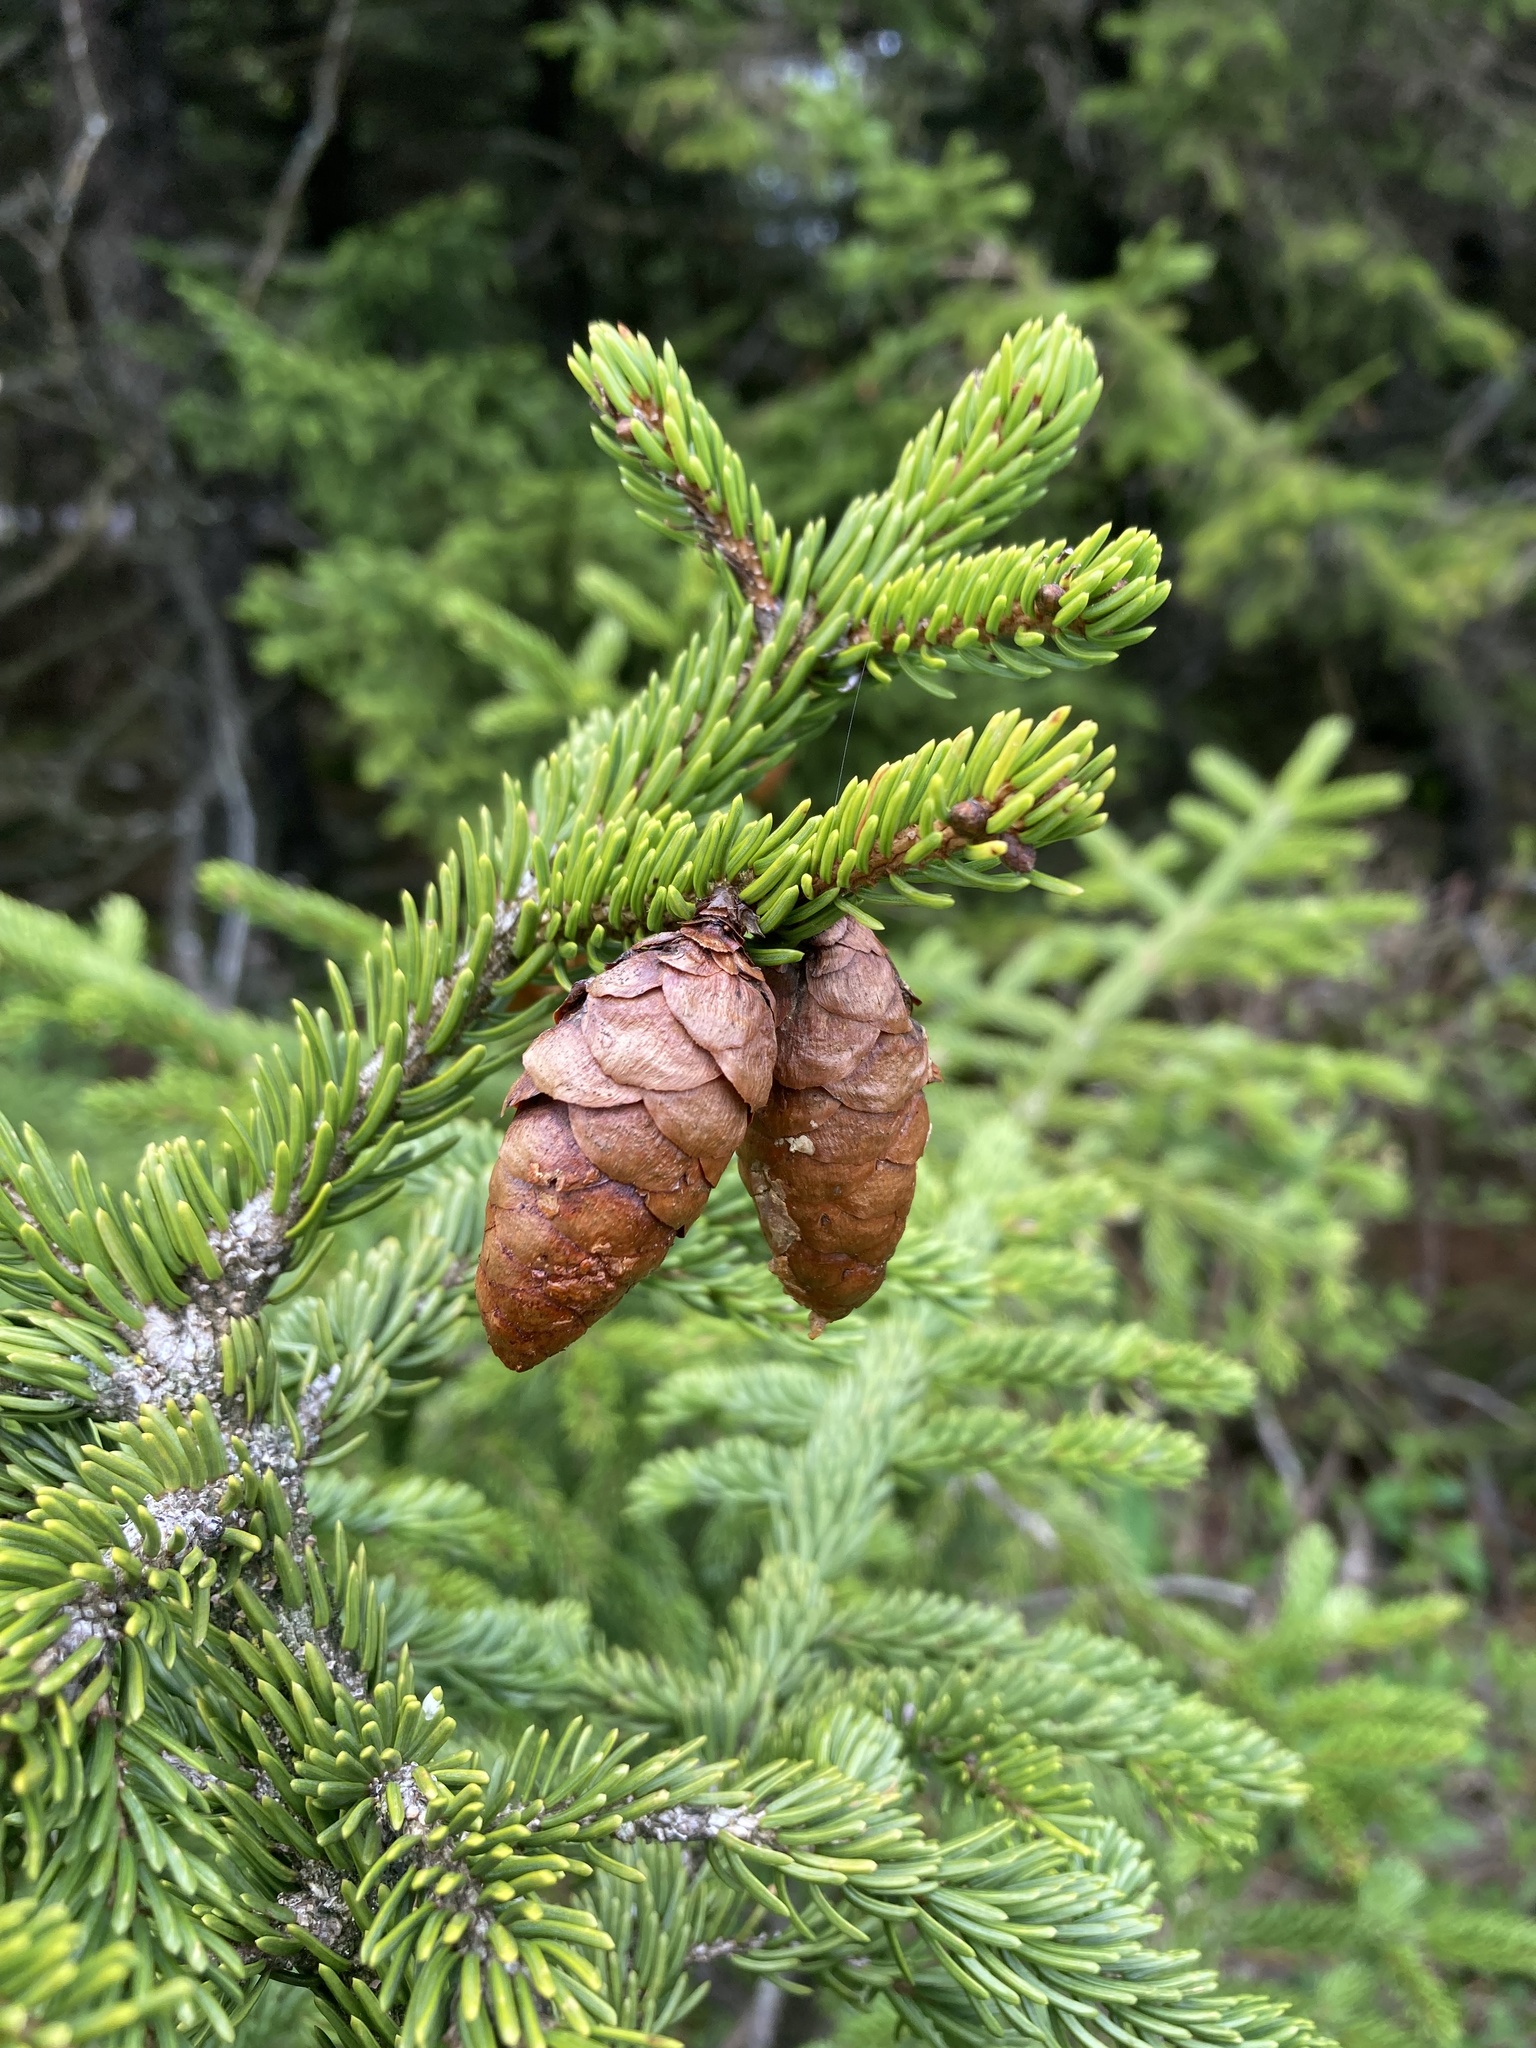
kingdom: Plantae
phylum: Tracheophyta
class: Pinopsida
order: Pinales
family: Pinaceae
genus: Picea
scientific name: Picea rubens
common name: Red spruce
